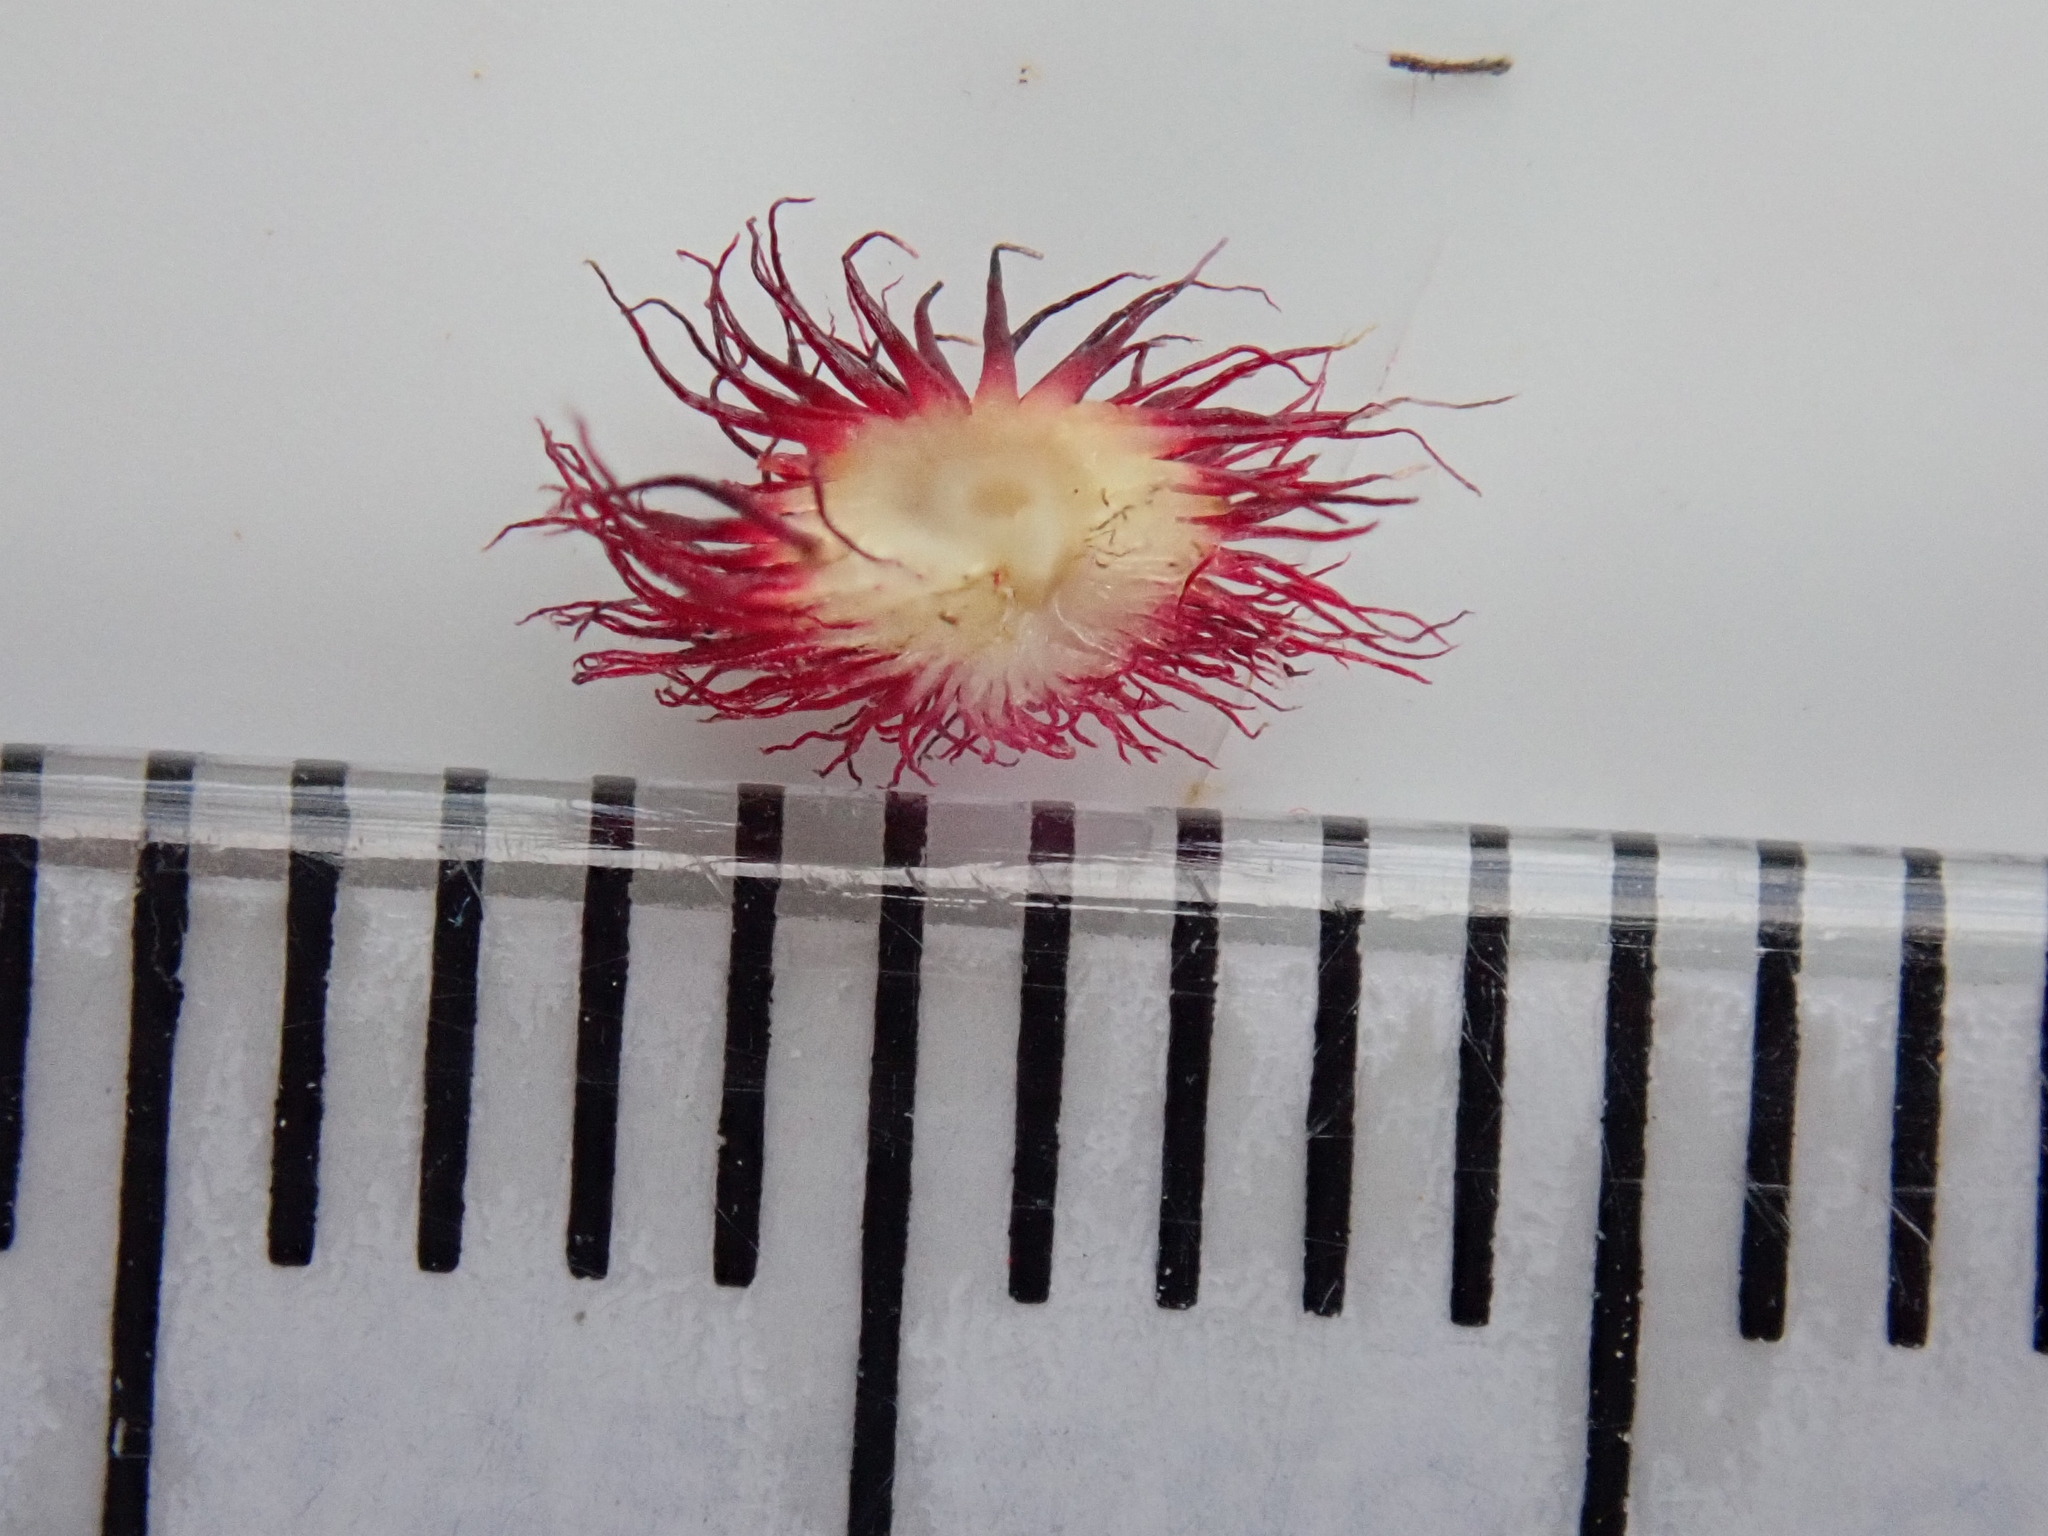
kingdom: Animalia
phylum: Arthropoda
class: Insecta
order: Hymenoptera
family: Cynipidae
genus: Acraspis
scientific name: Acraspis erinacei
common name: Hedgehog gall wasp
